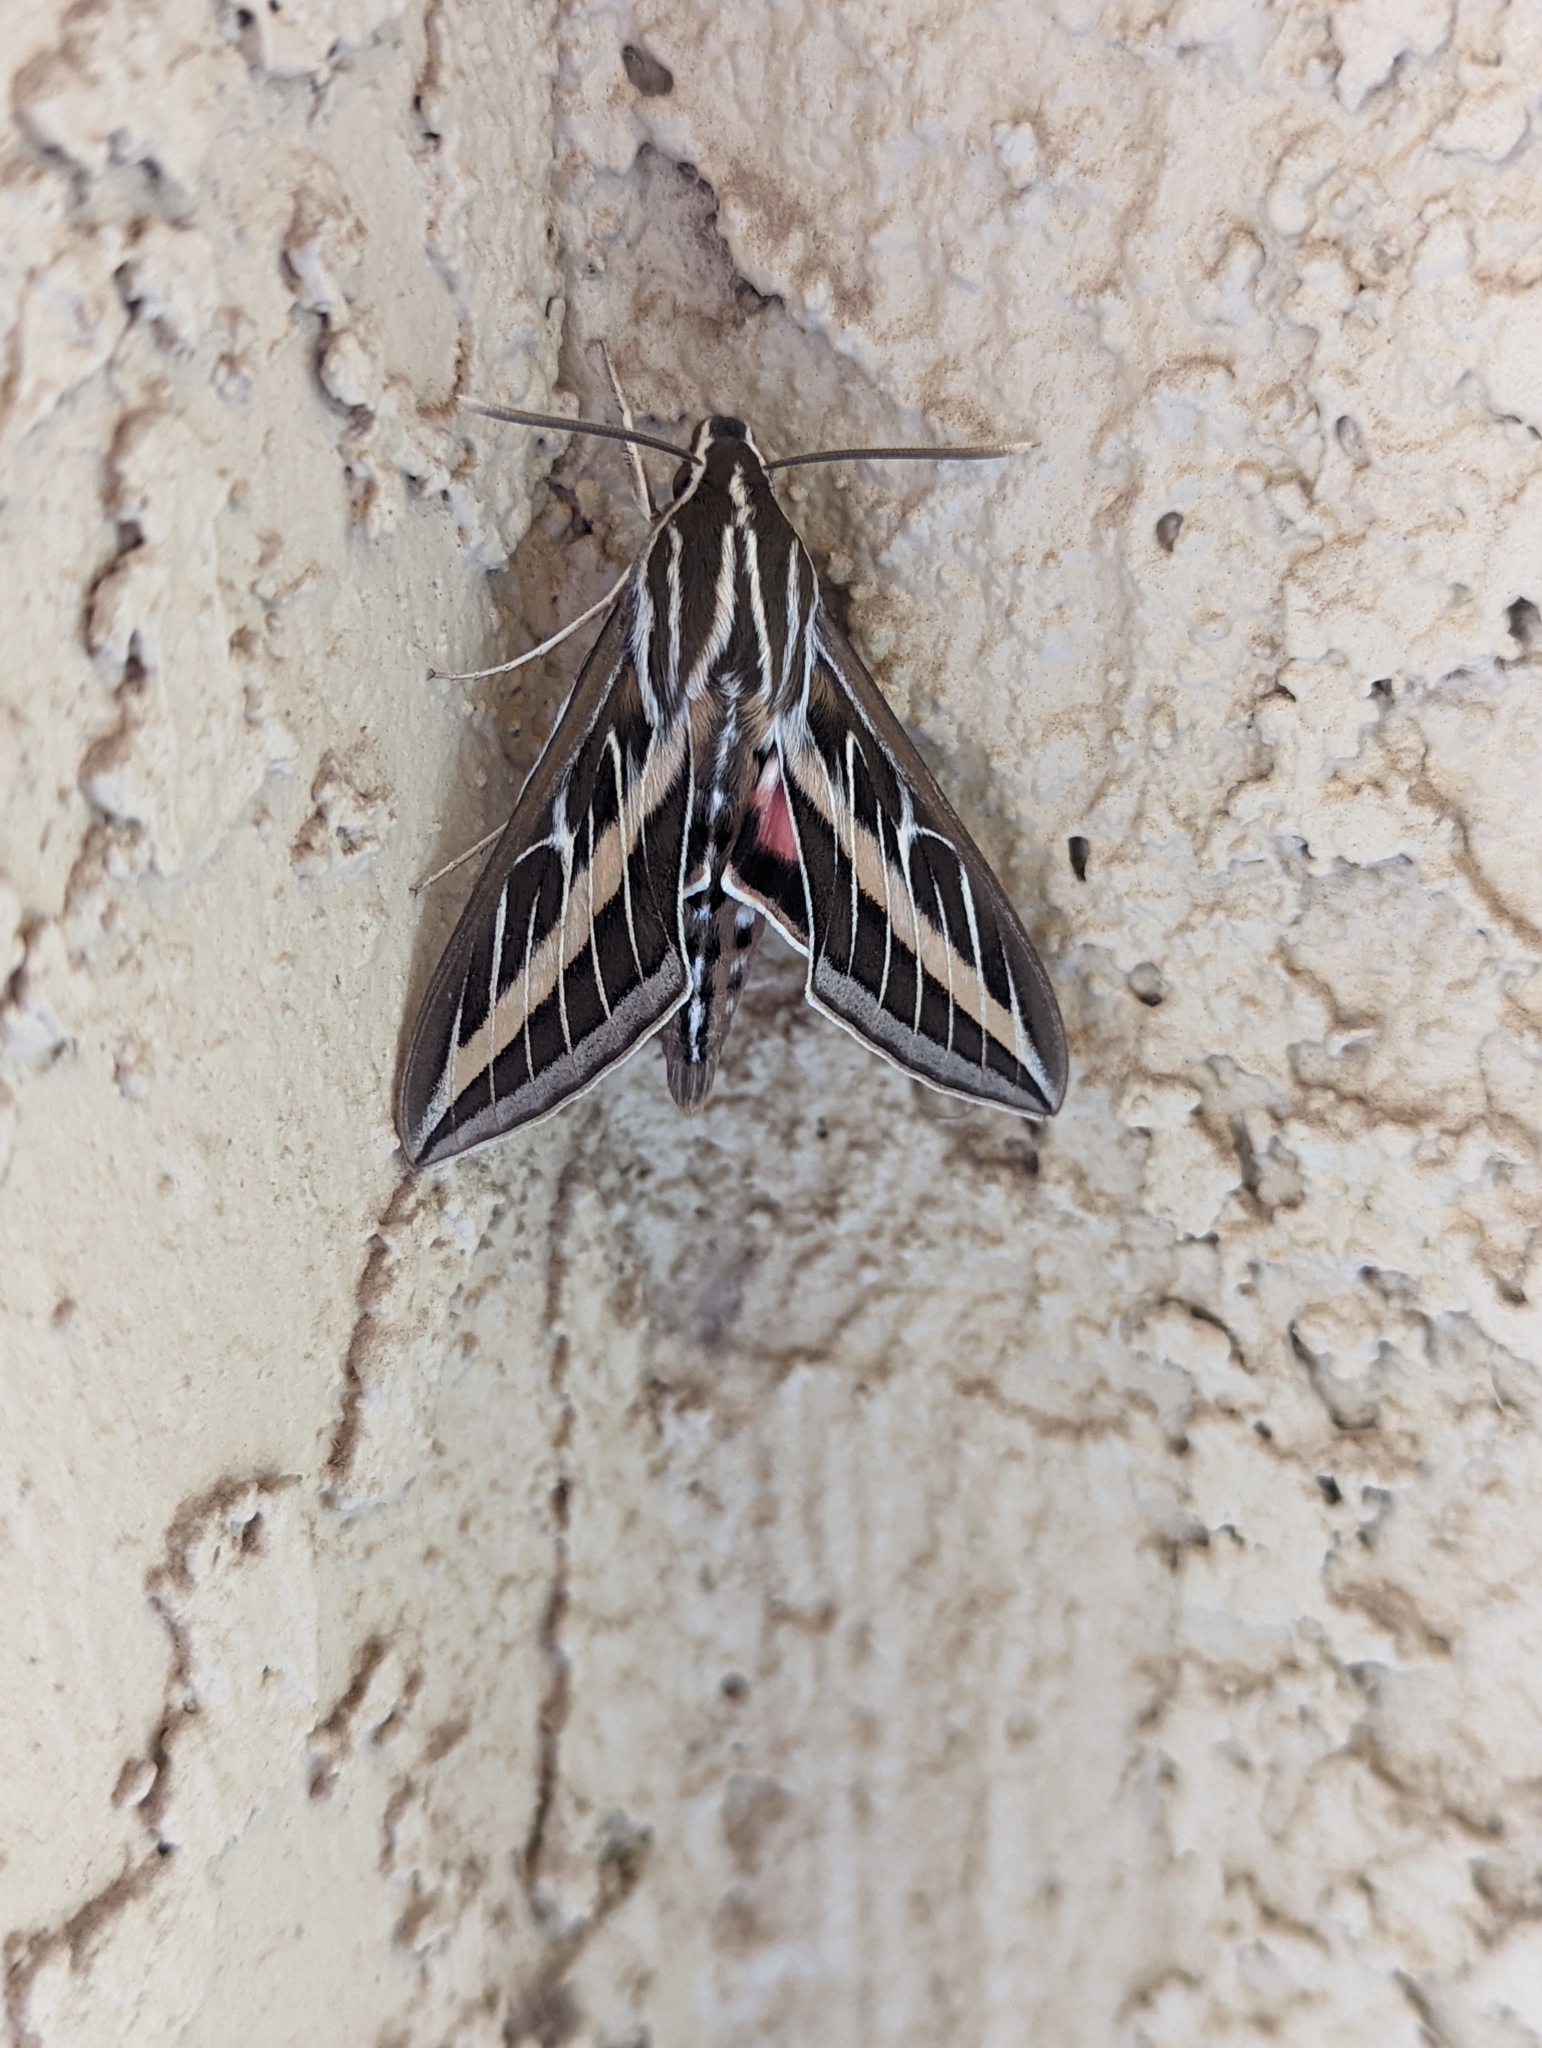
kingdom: Animalia
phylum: Arthropoda
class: Insecta
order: Lepidoptera
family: Sphingidae
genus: Hyles
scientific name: Hyles lineata
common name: White-lined sphinx
